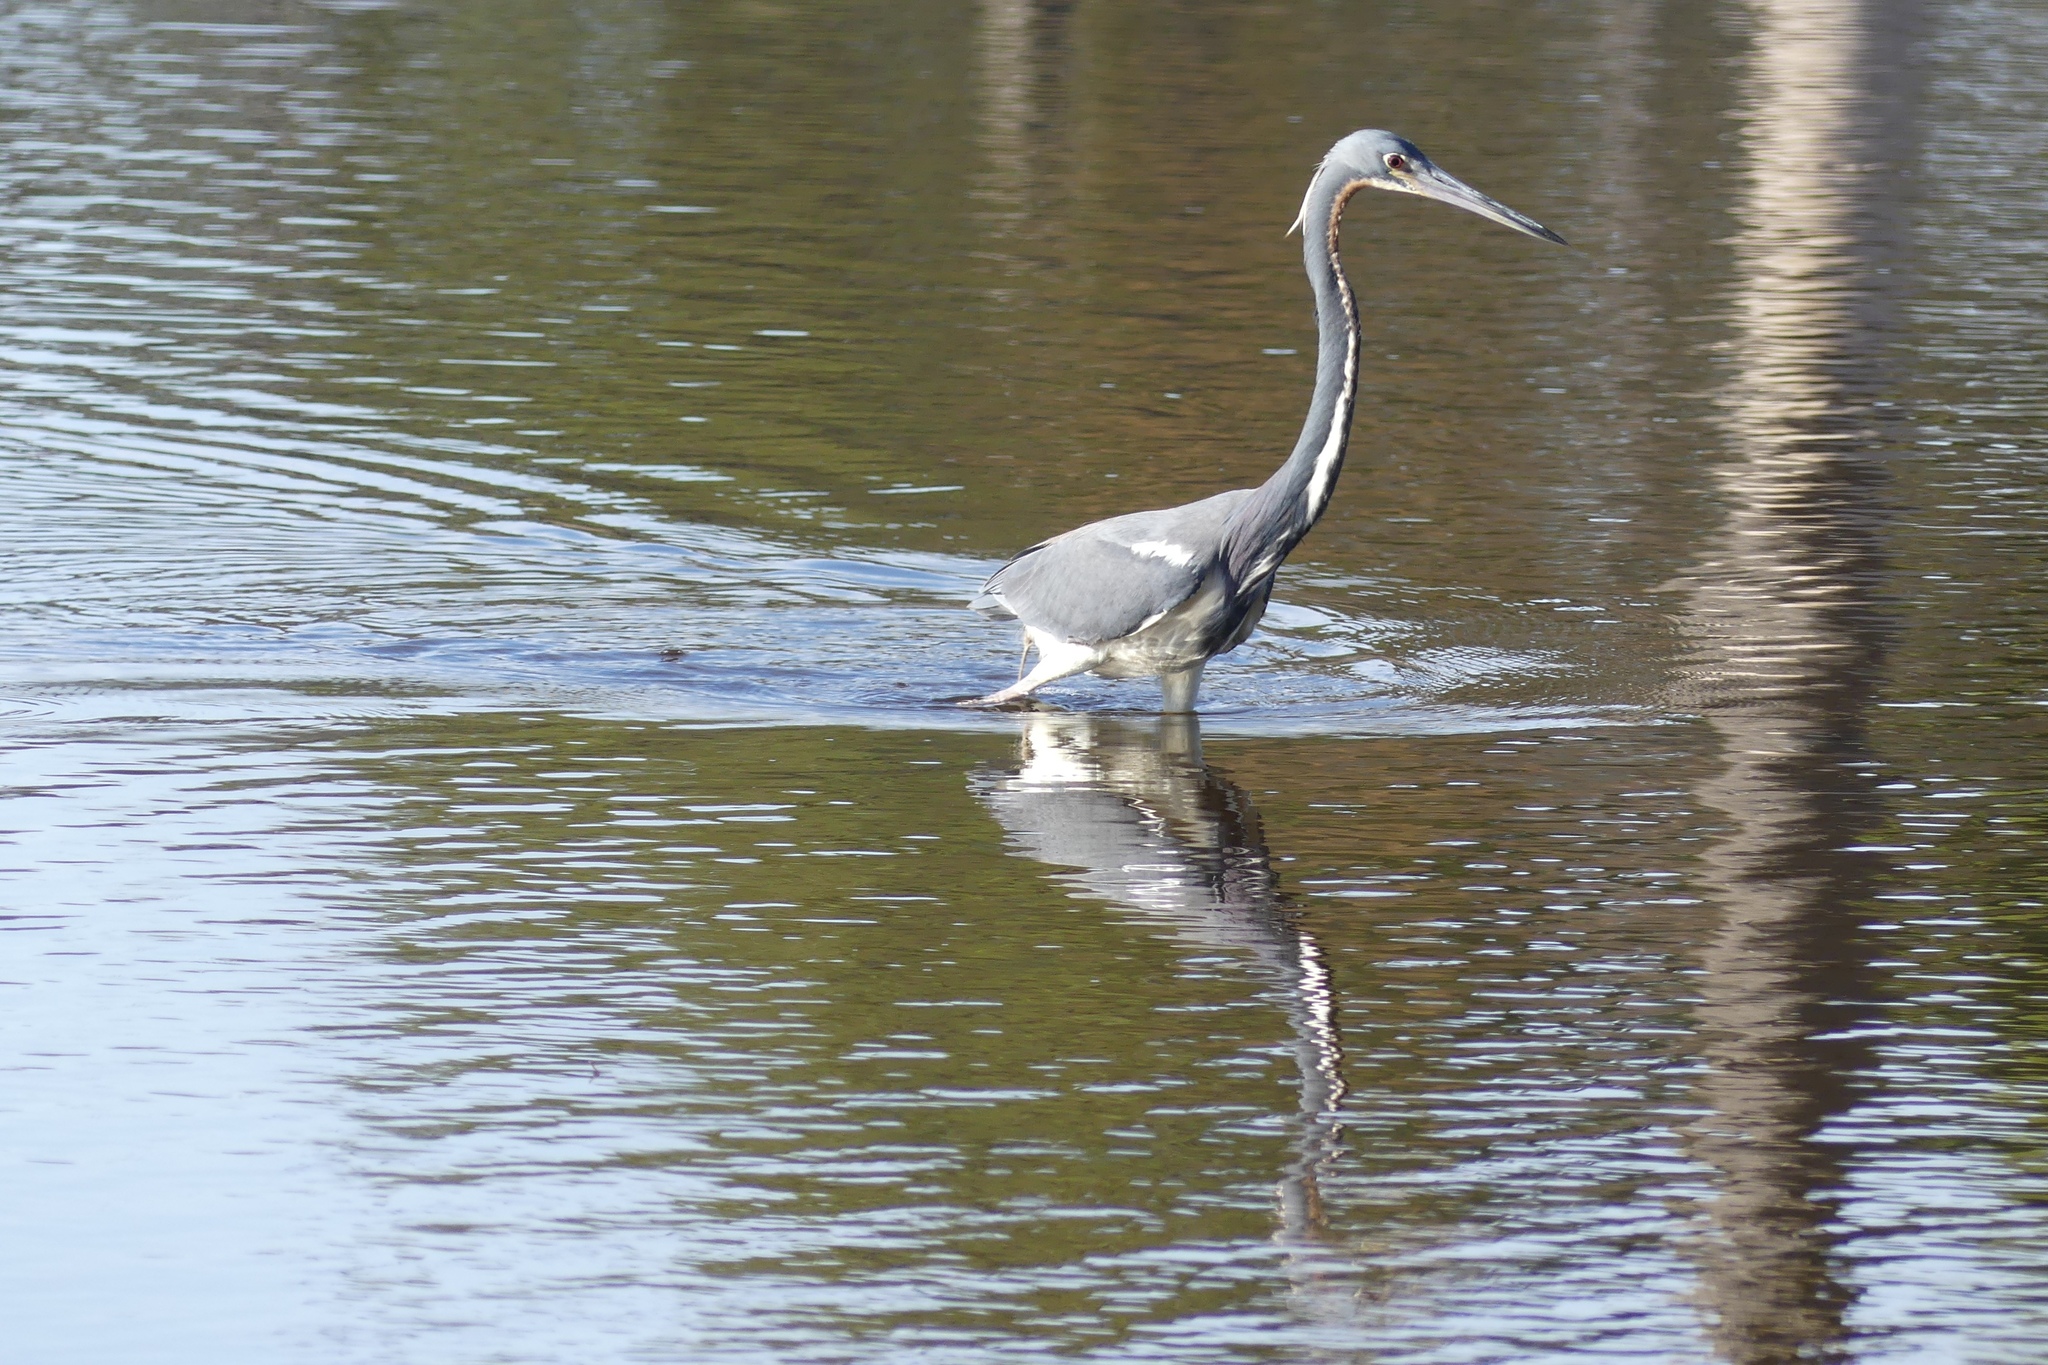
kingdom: Animalia
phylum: Chordata
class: Aves
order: Pelecaniformes
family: Ardeidae
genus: Egretta
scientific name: Egretta tricolor
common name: Tricolored heron
